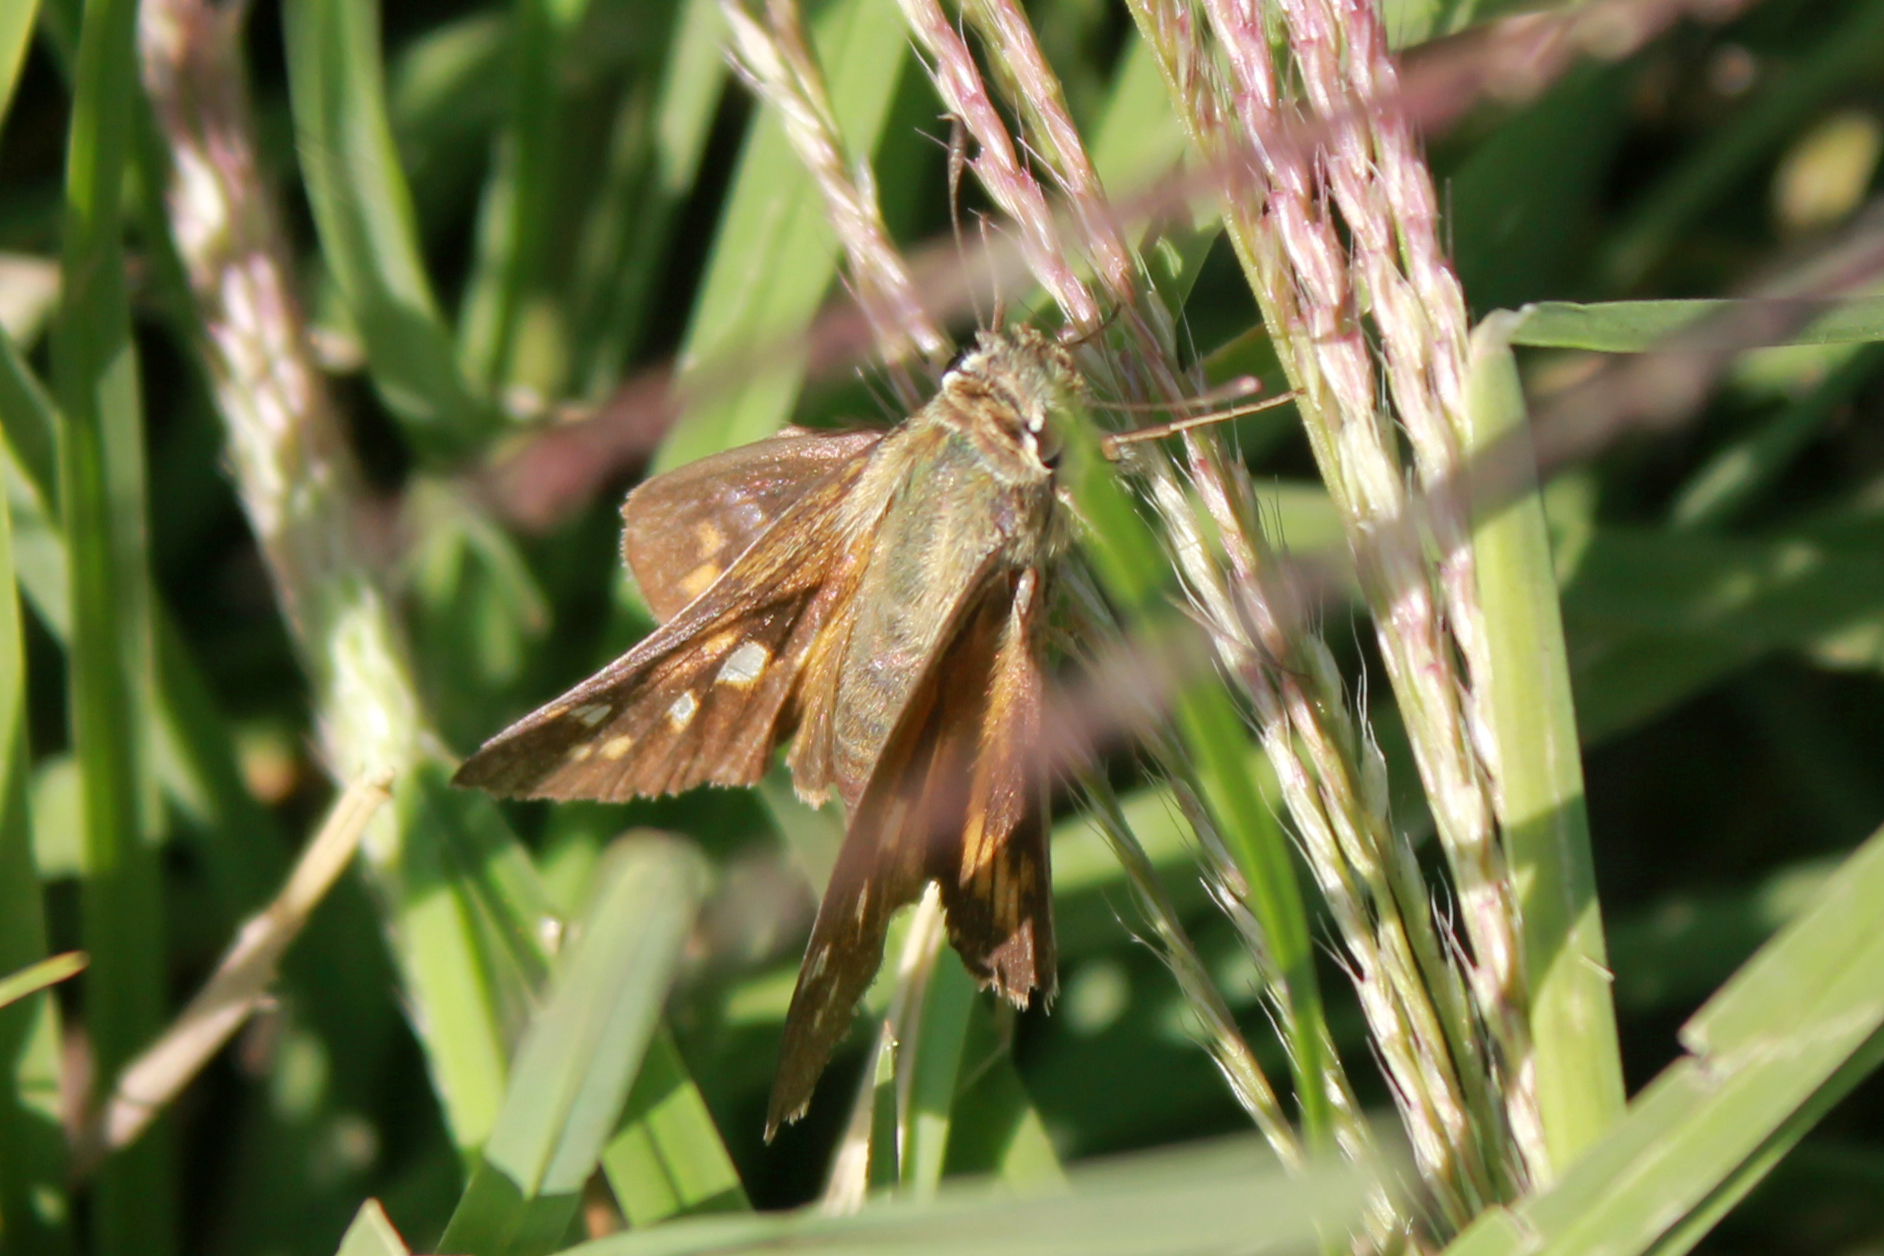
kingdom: Animalia
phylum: Arthropoda
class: Insecta
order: Lepidoptera
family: Hesperiidae
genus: Atalopedes
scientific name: Atalopedes
